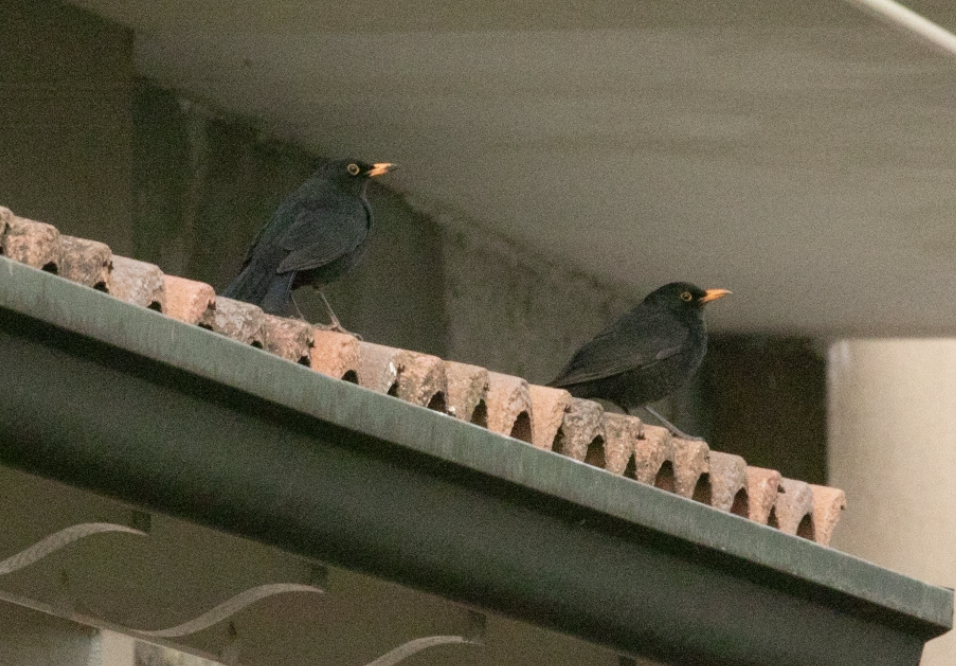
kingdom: Animalia
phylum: Chordata
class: Aves
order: Passeriformes
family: Turdidae
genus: Turdus
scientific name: Turdus merula
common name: Common blackbird
